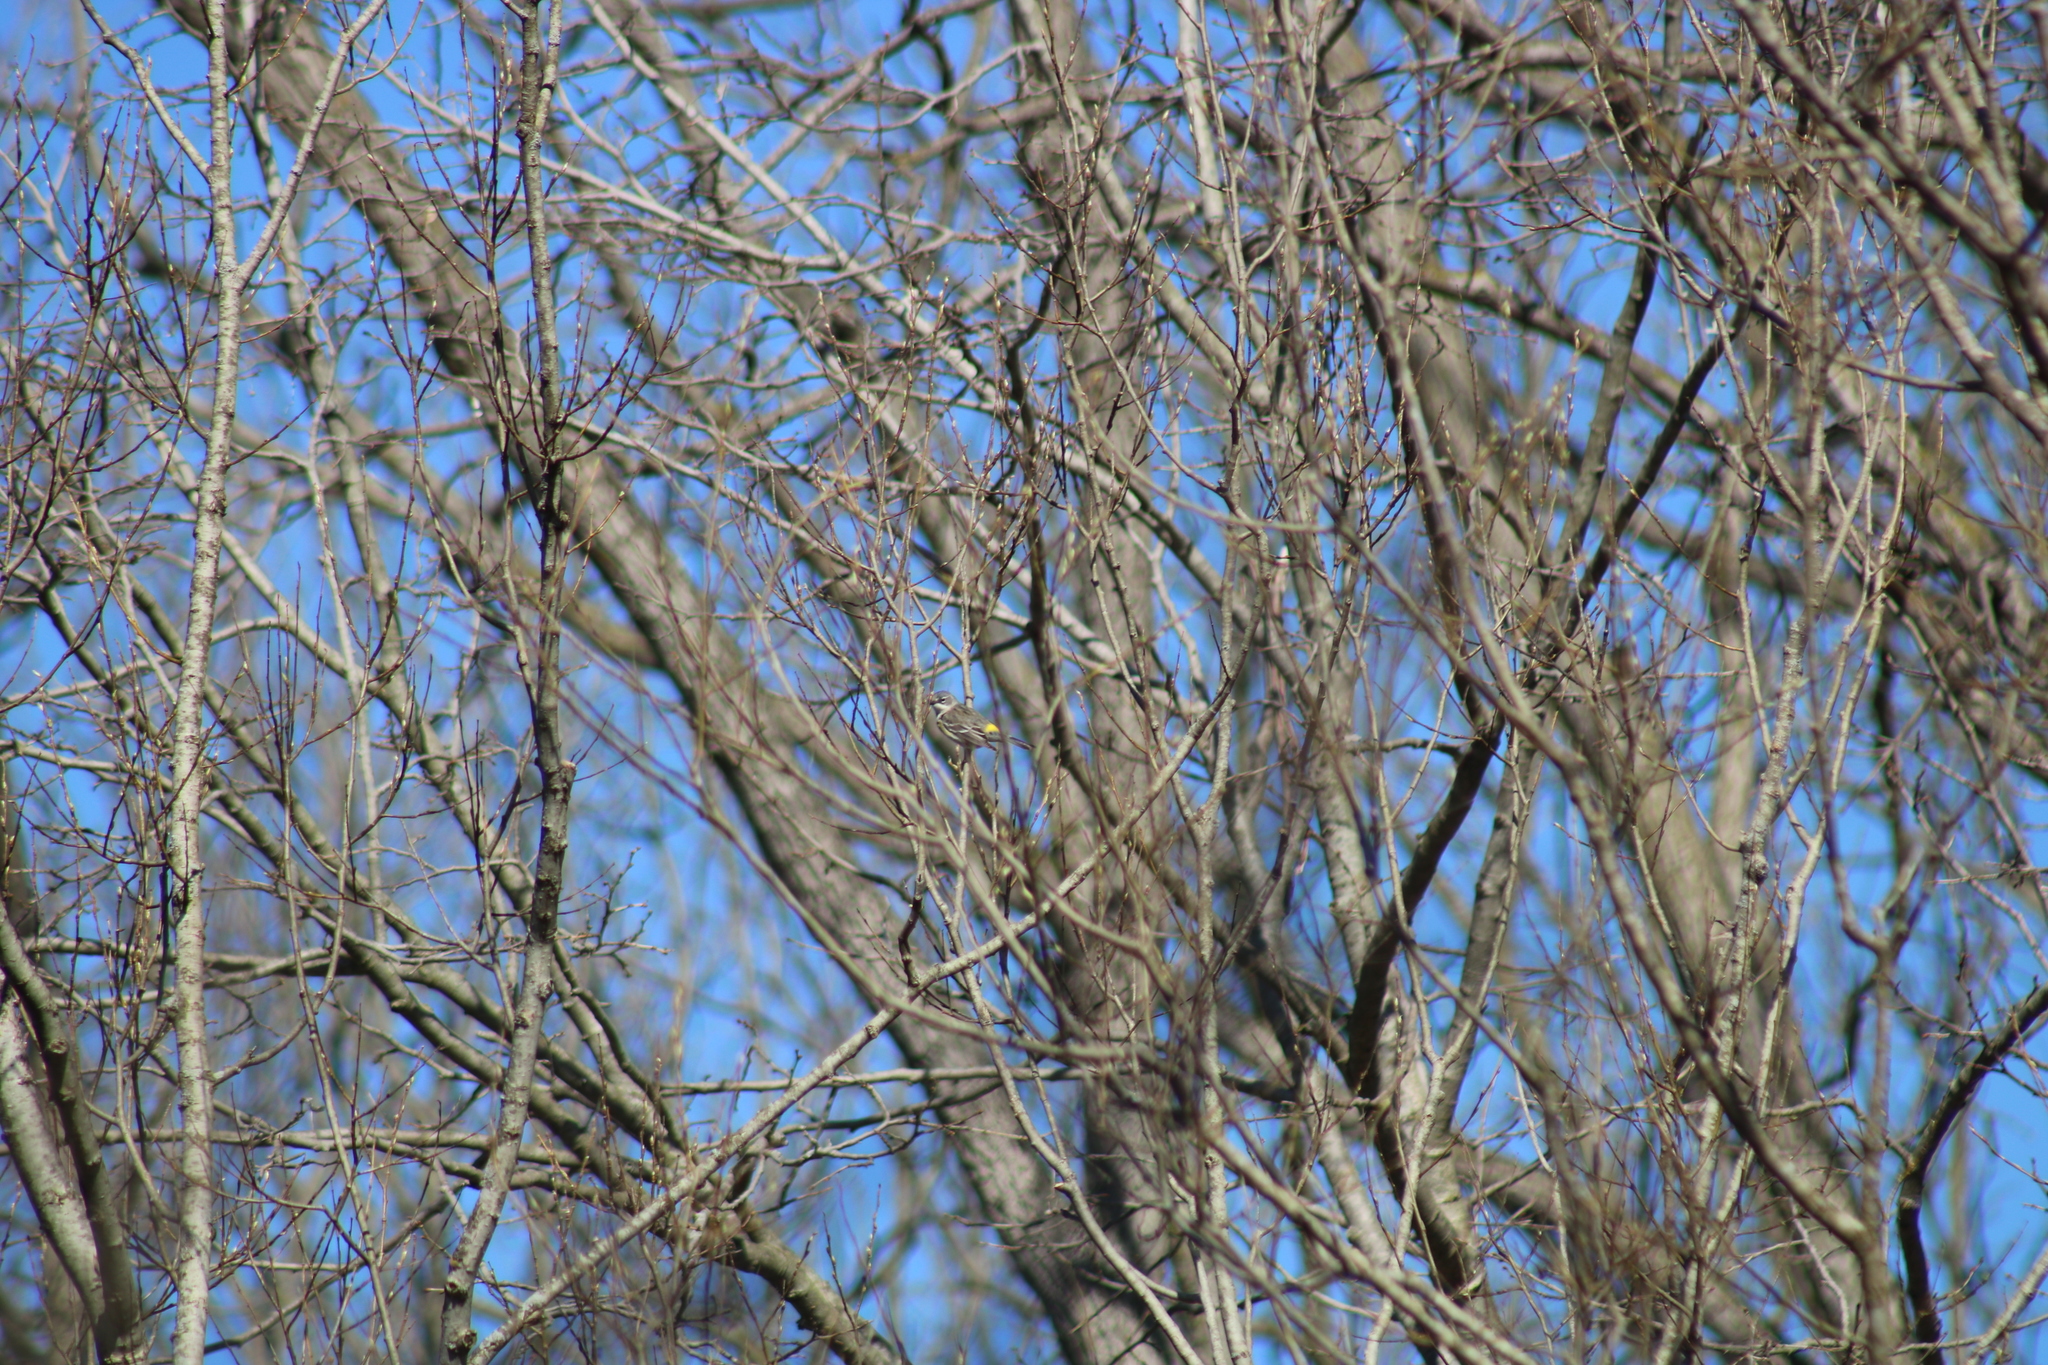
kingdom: Animalia
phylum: Chordata
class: Aves
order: Passeriformes
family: Parulidae
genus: Setophaga
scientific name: Setophaga coronata
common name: Myrtle warbler
